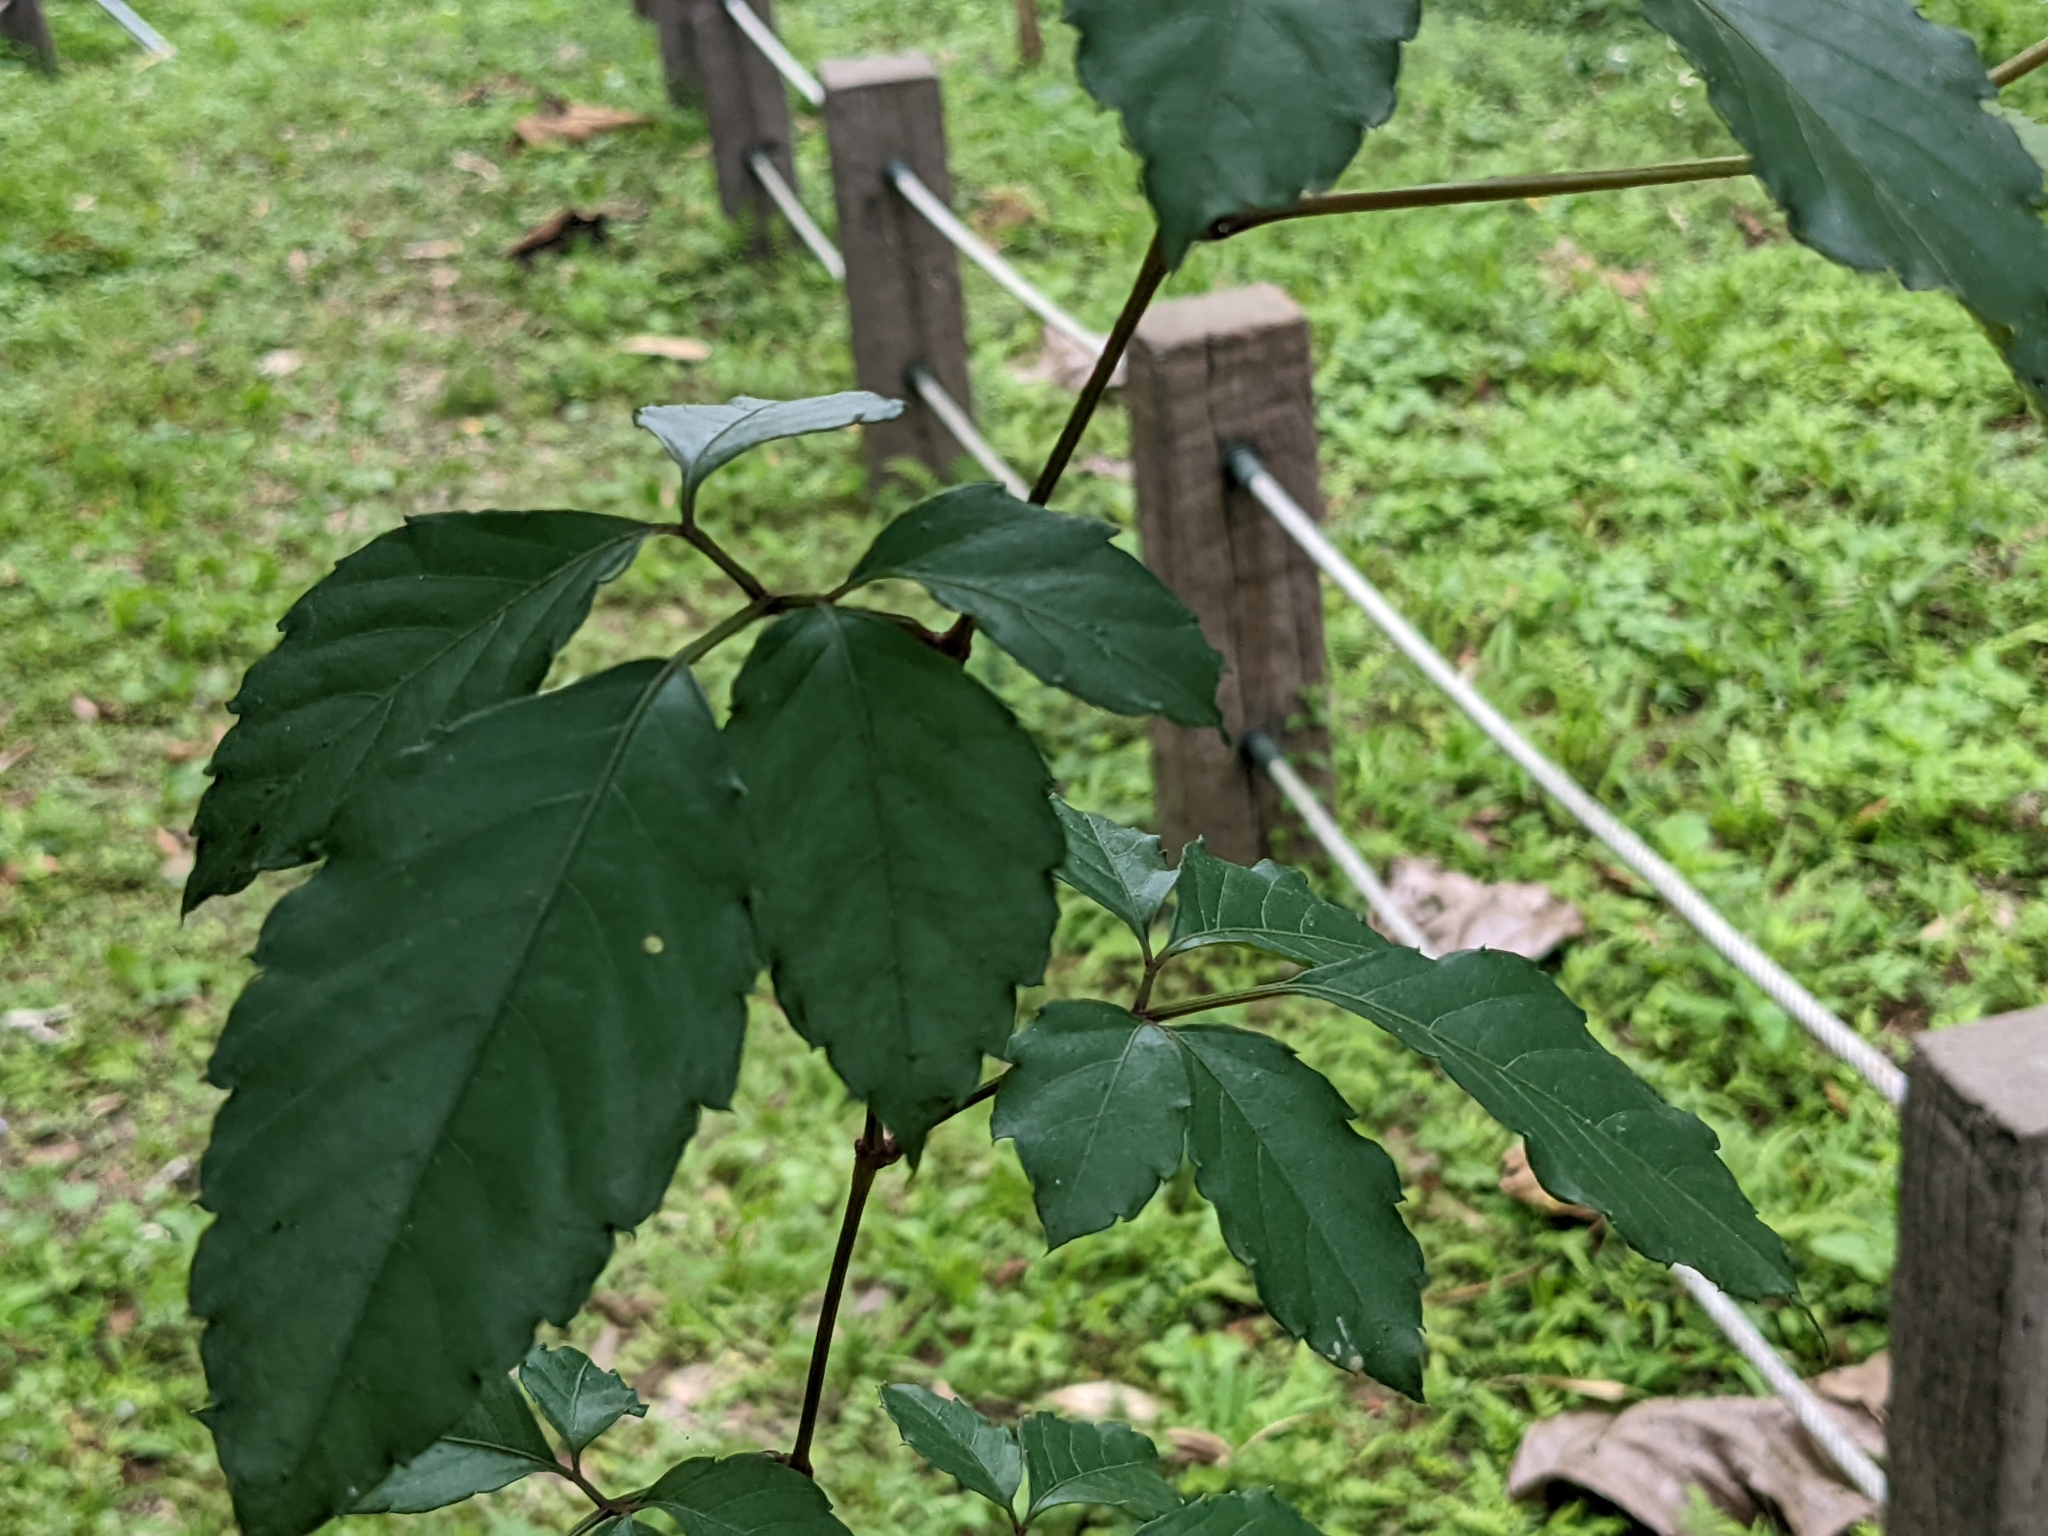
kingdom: Plantae
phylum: Tracheophyta
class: Magnoliopsida
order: Vitales
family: Vitaceae
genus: Causonis
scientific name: Causonis corniculata
